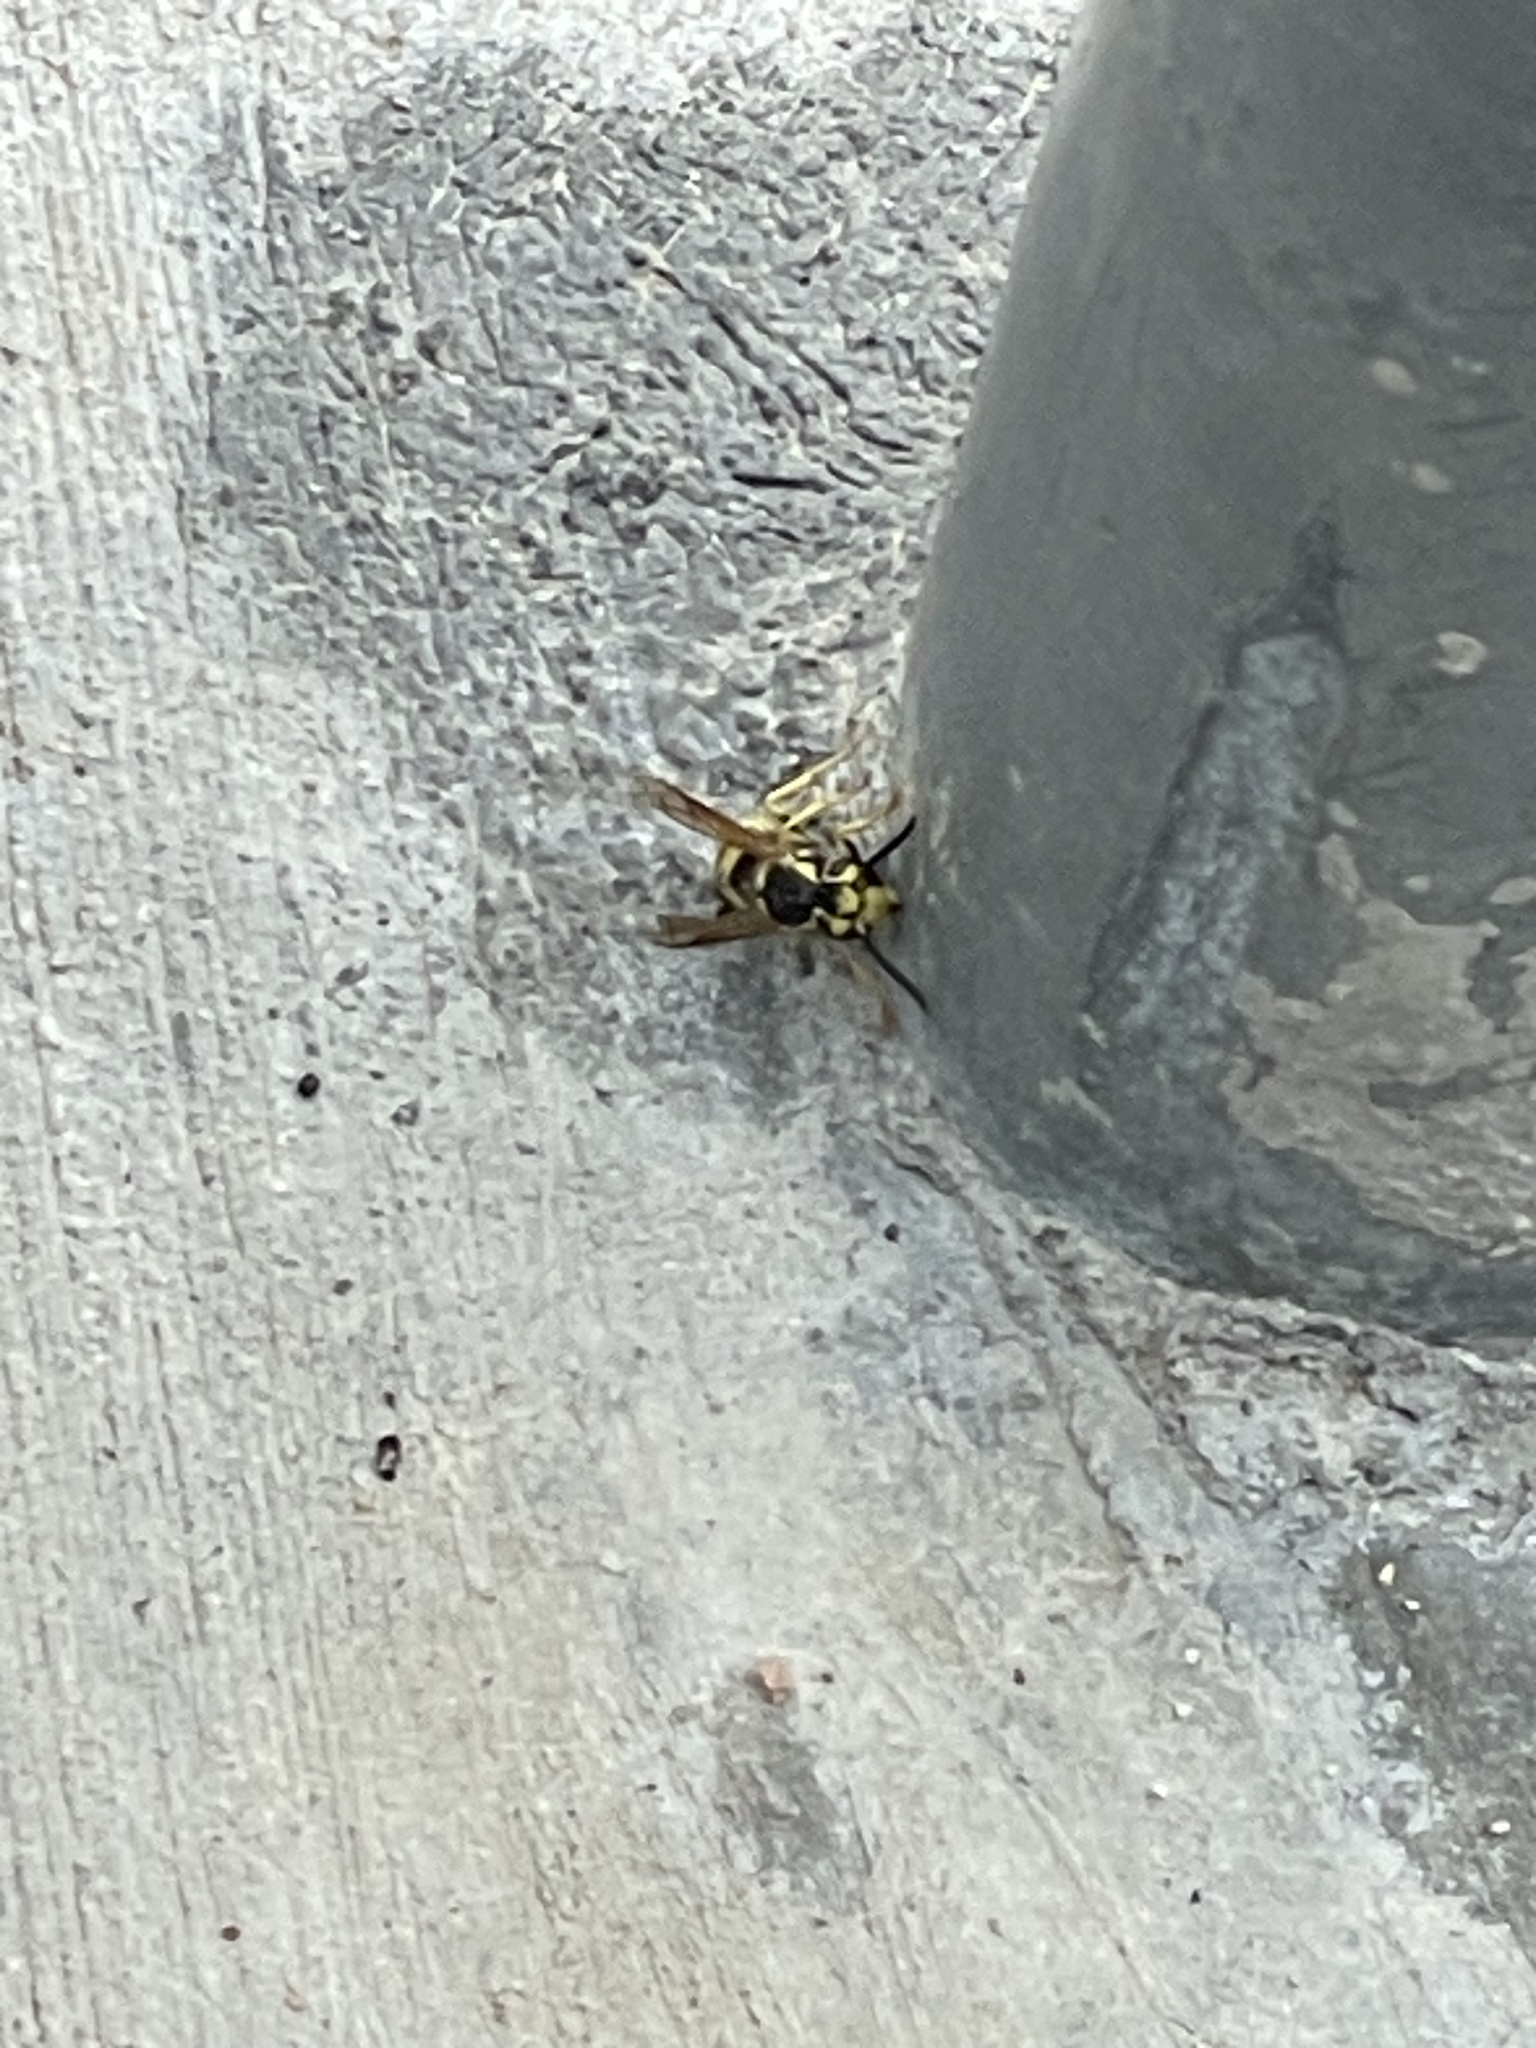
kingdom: Animalia
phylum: Arthropoda
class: Insecta
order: Hymenoptera
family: Vespidae
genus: Vespula
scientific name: Vespula pensylvanica
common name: Western yellowjacket
